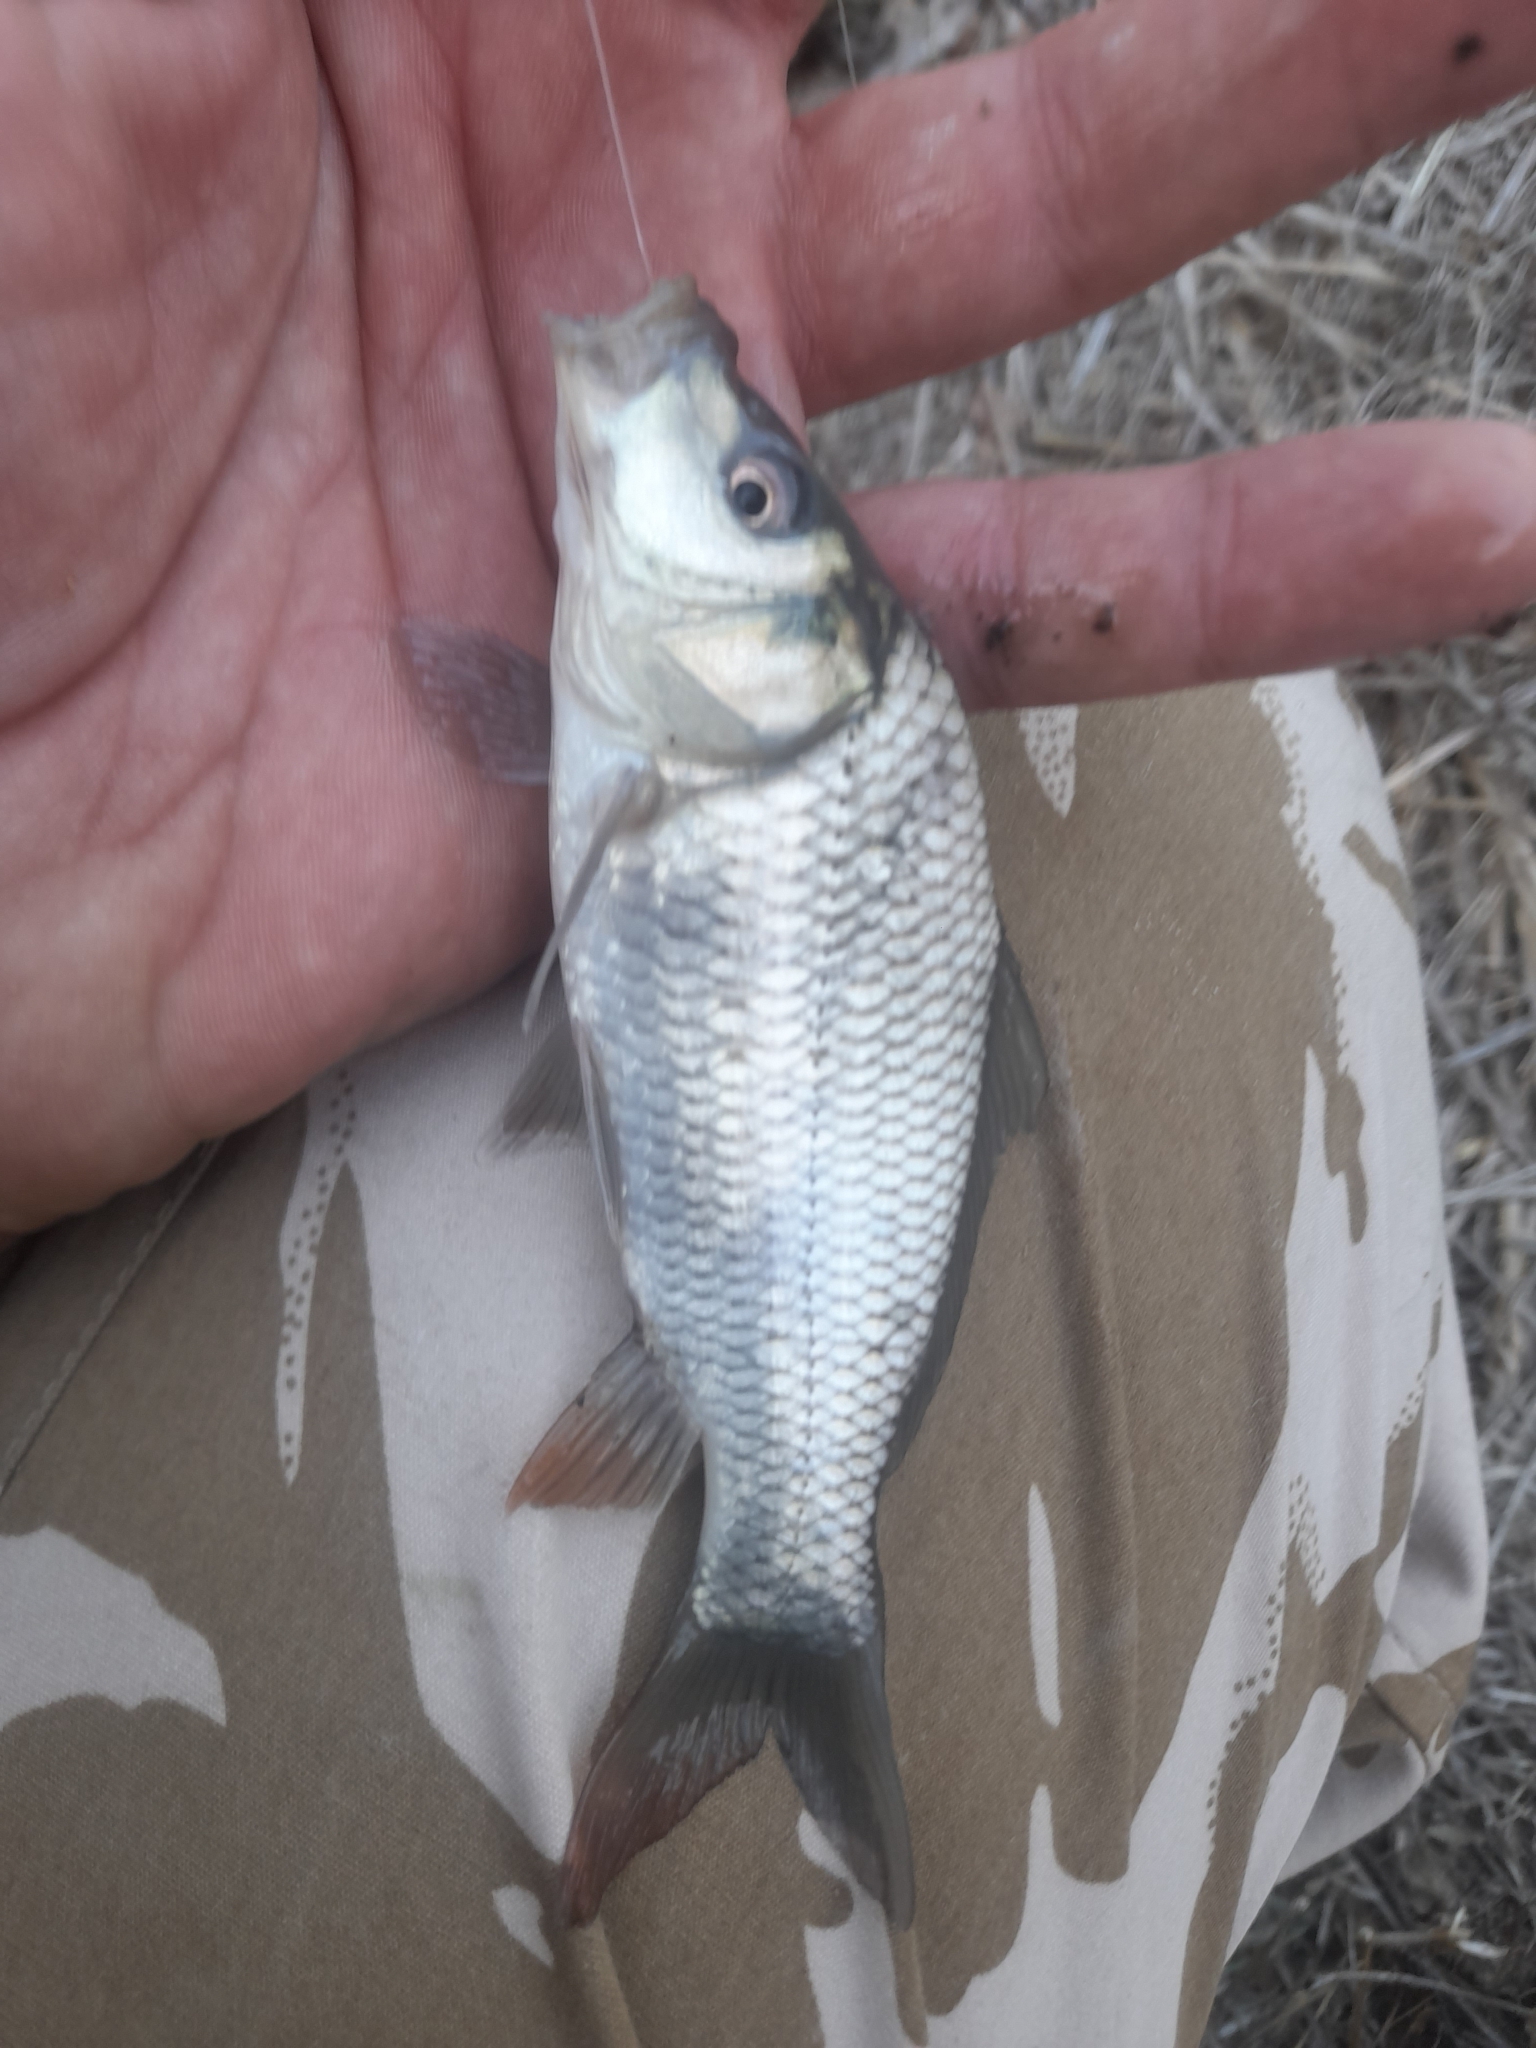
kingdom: Animalia
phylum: Chordata
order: Cypriniformes
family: Cyprinidae
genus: Cyprinus
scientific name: Cyprinus carpio
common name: Common carp
